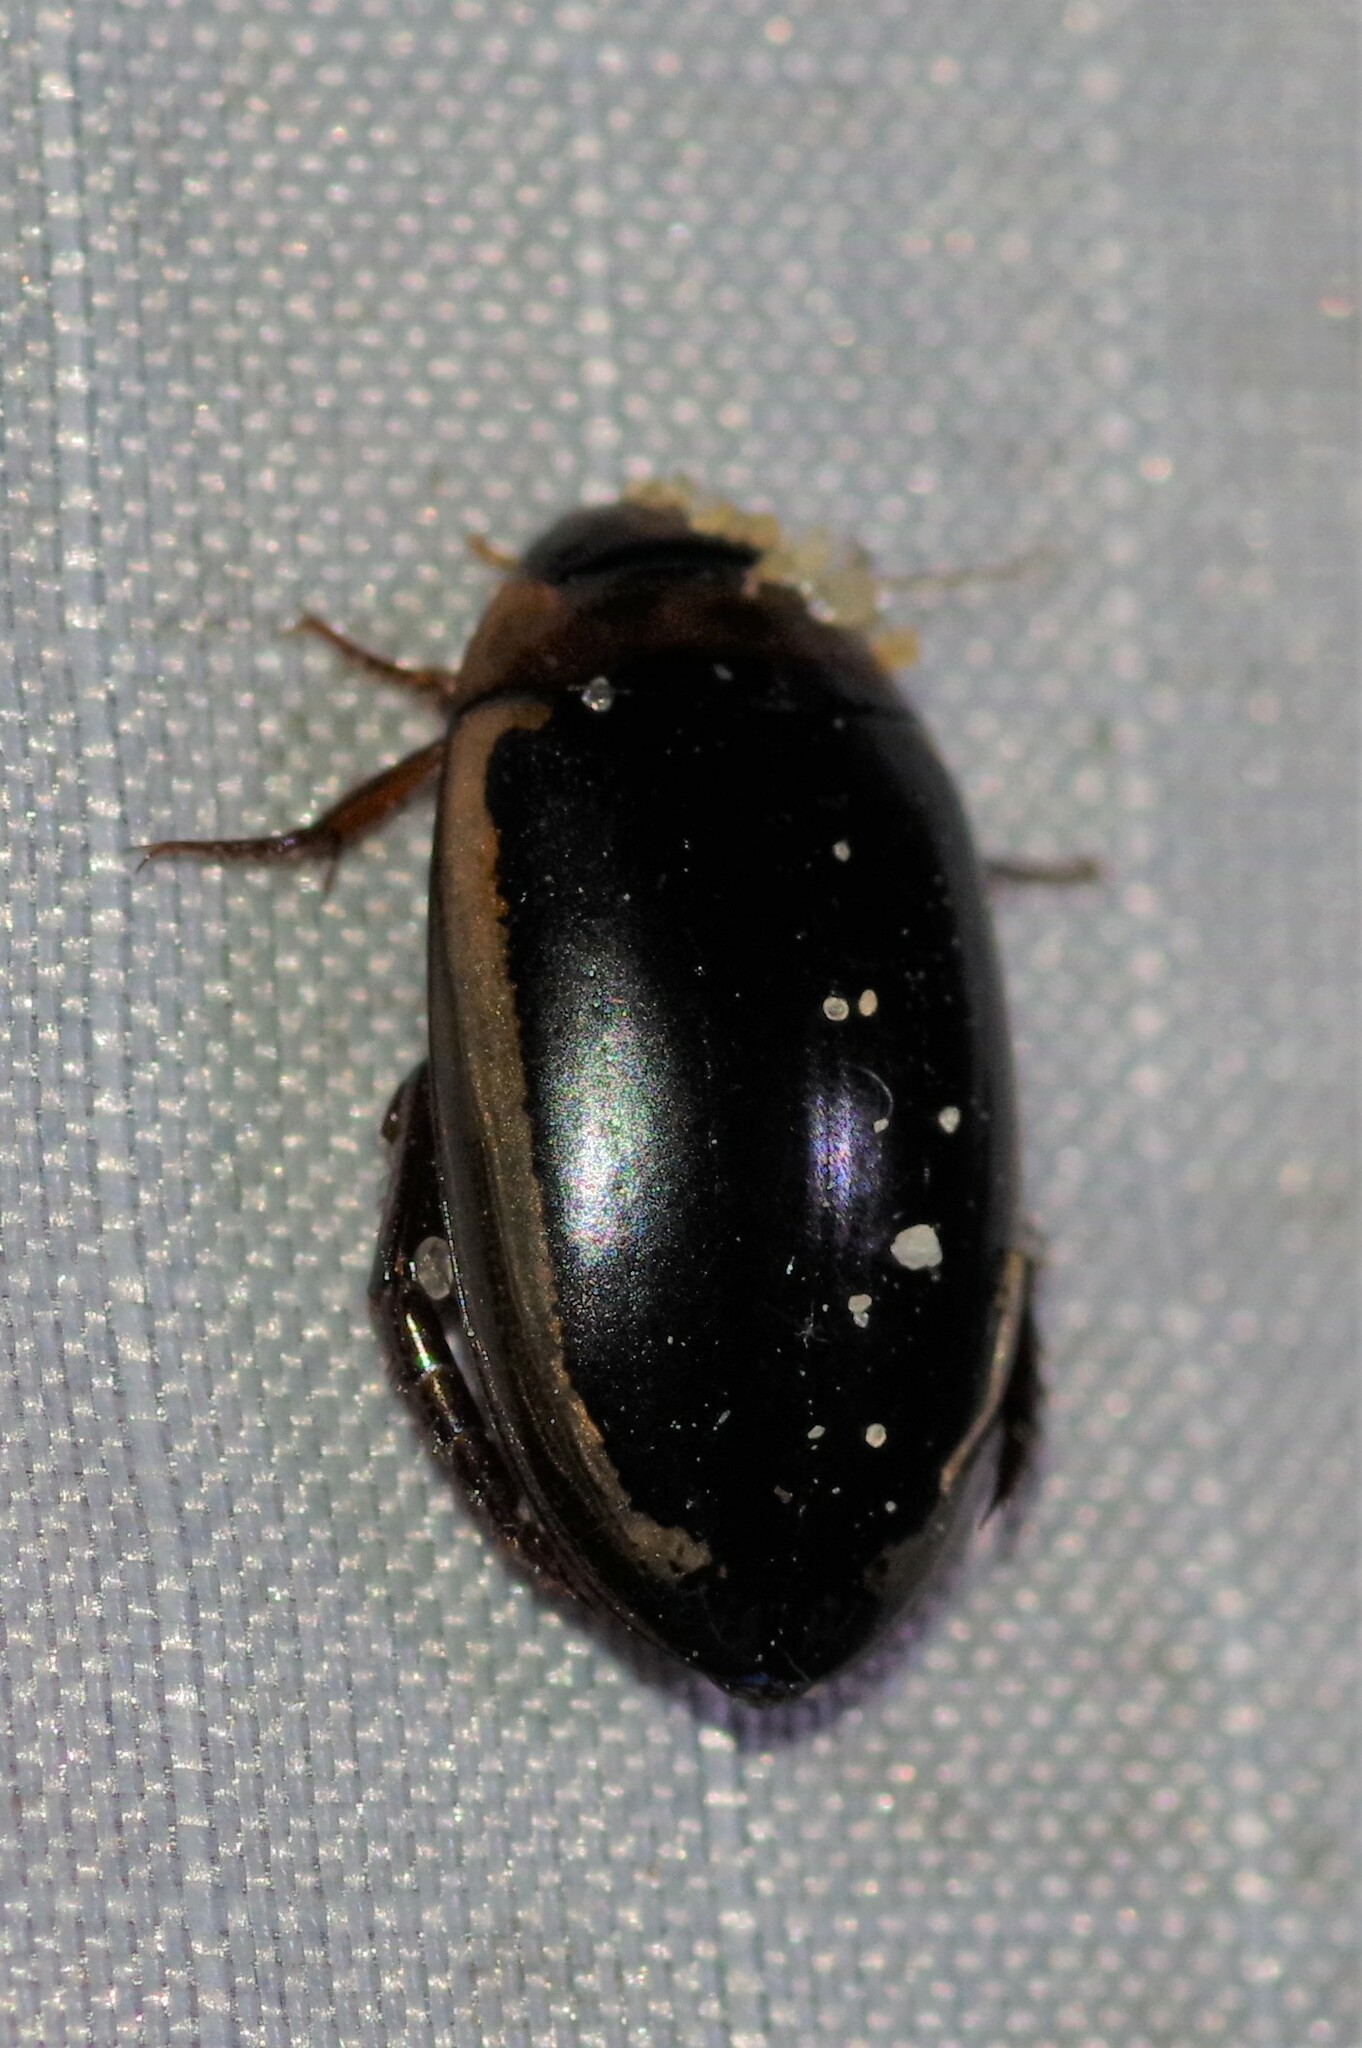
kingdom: Animalia
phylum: Arthropoda
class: Insecta
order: Coleoptera
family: Dytiscidae
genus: Hydaticus
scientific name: Hydaticus bimarginatus
